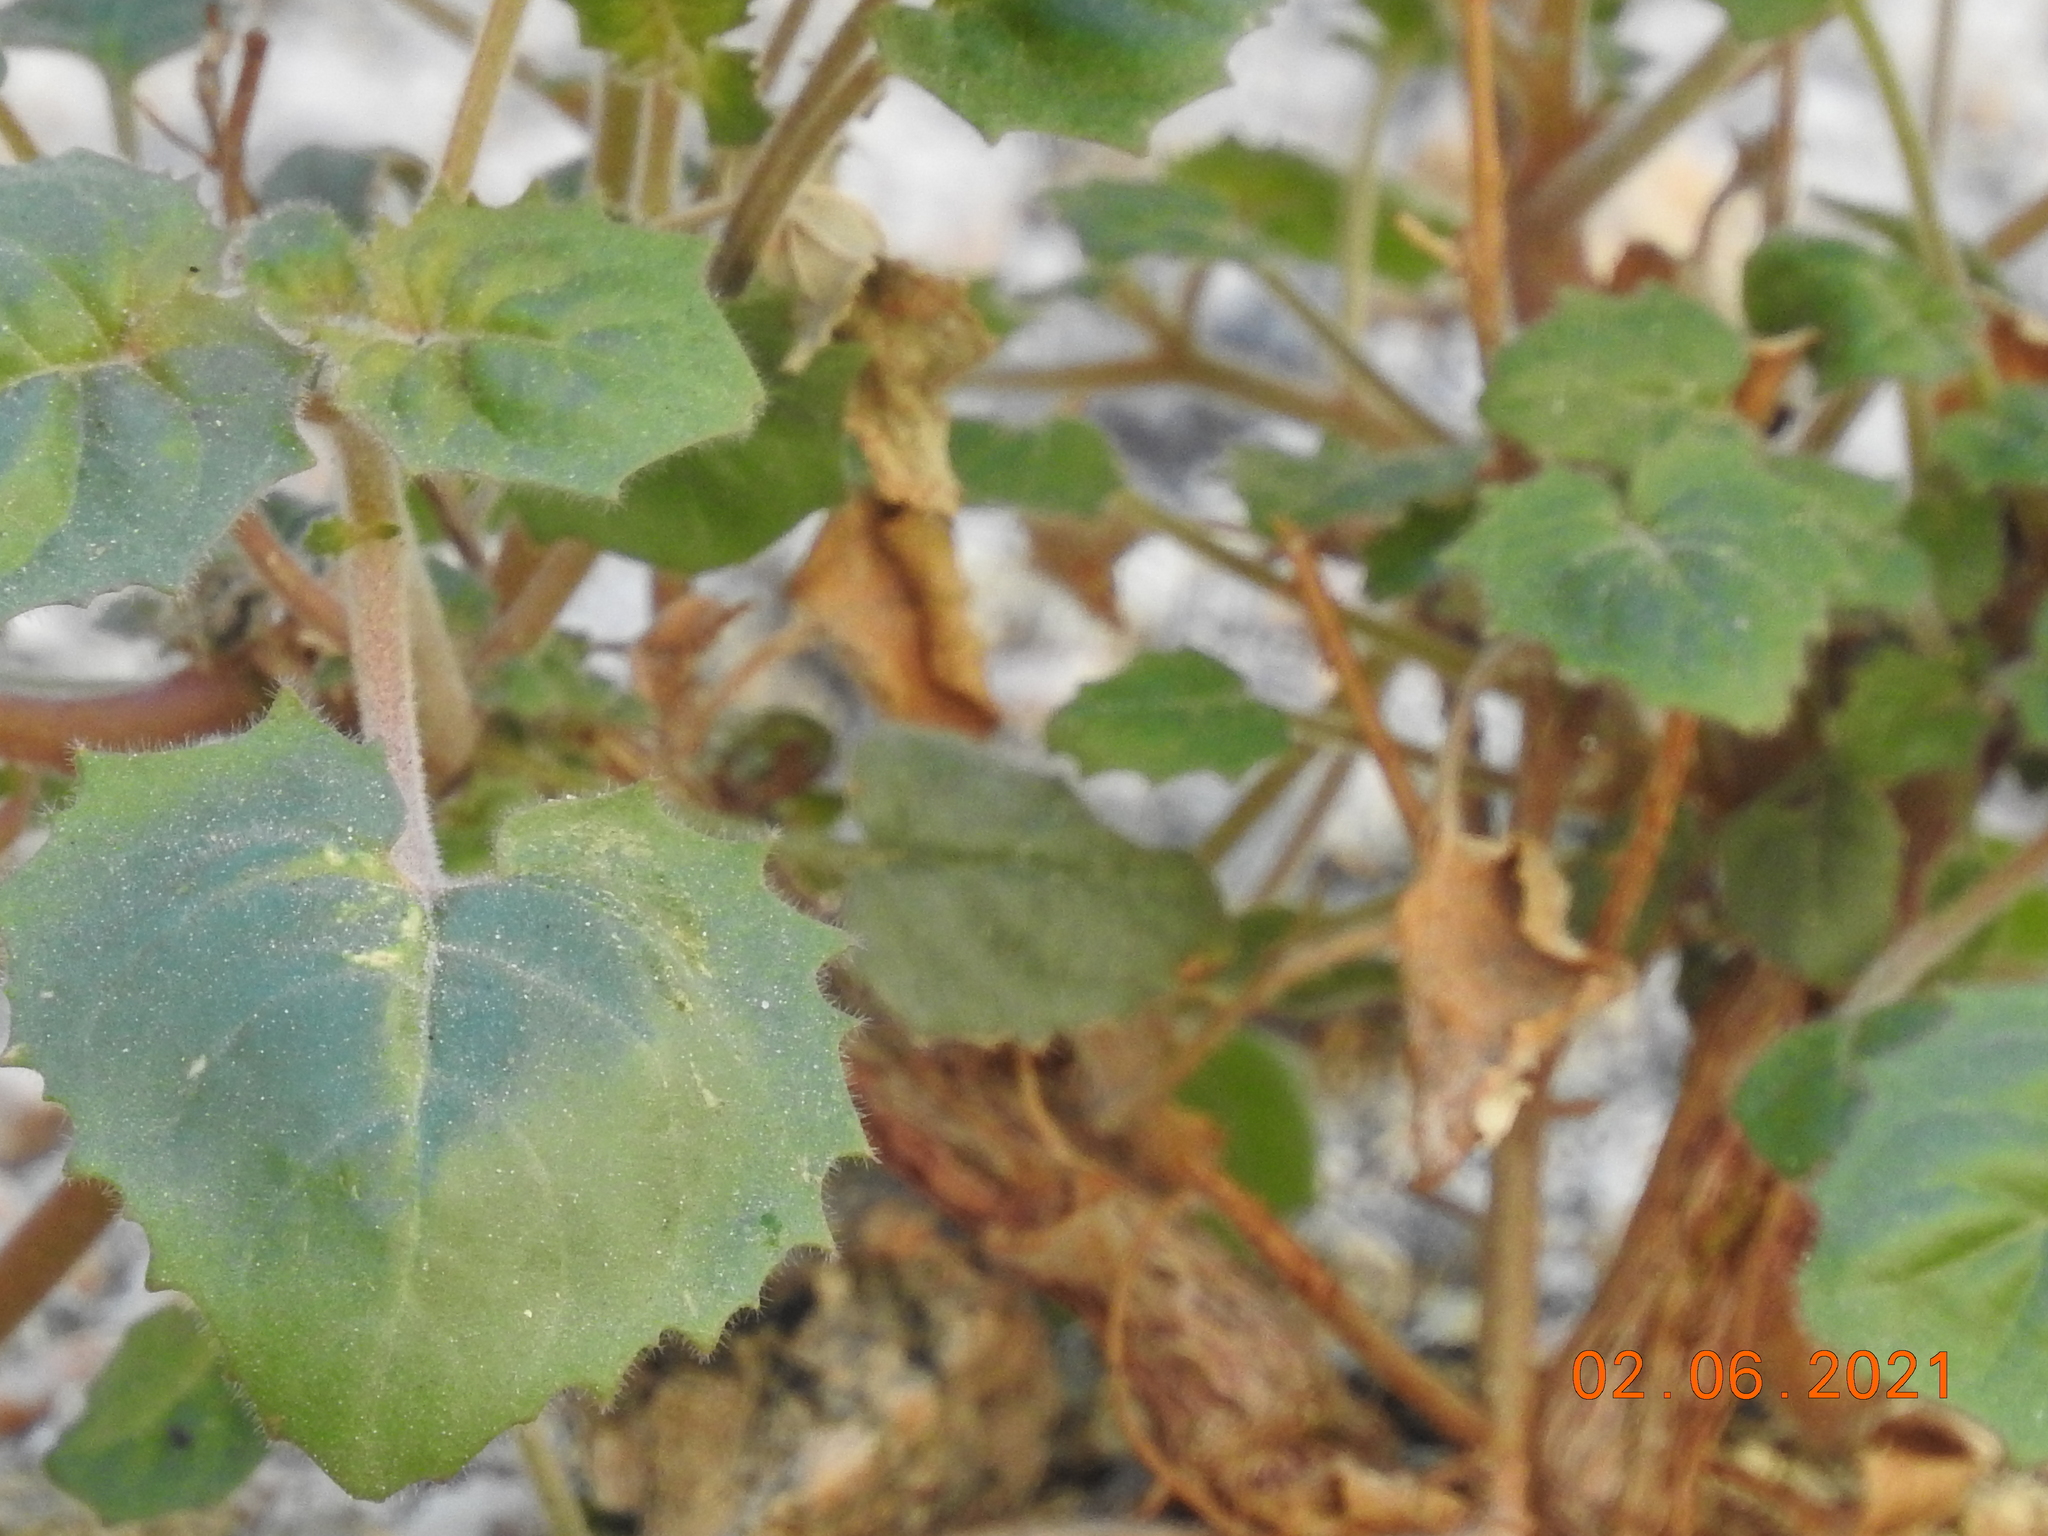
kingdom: Plantae
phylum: Tracheophyta
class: Magnoliopsida
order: Myrtales
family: Onagraceae
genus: Chylismia
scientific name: Chylismia cardiophylla
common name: Heartleaf suncup
